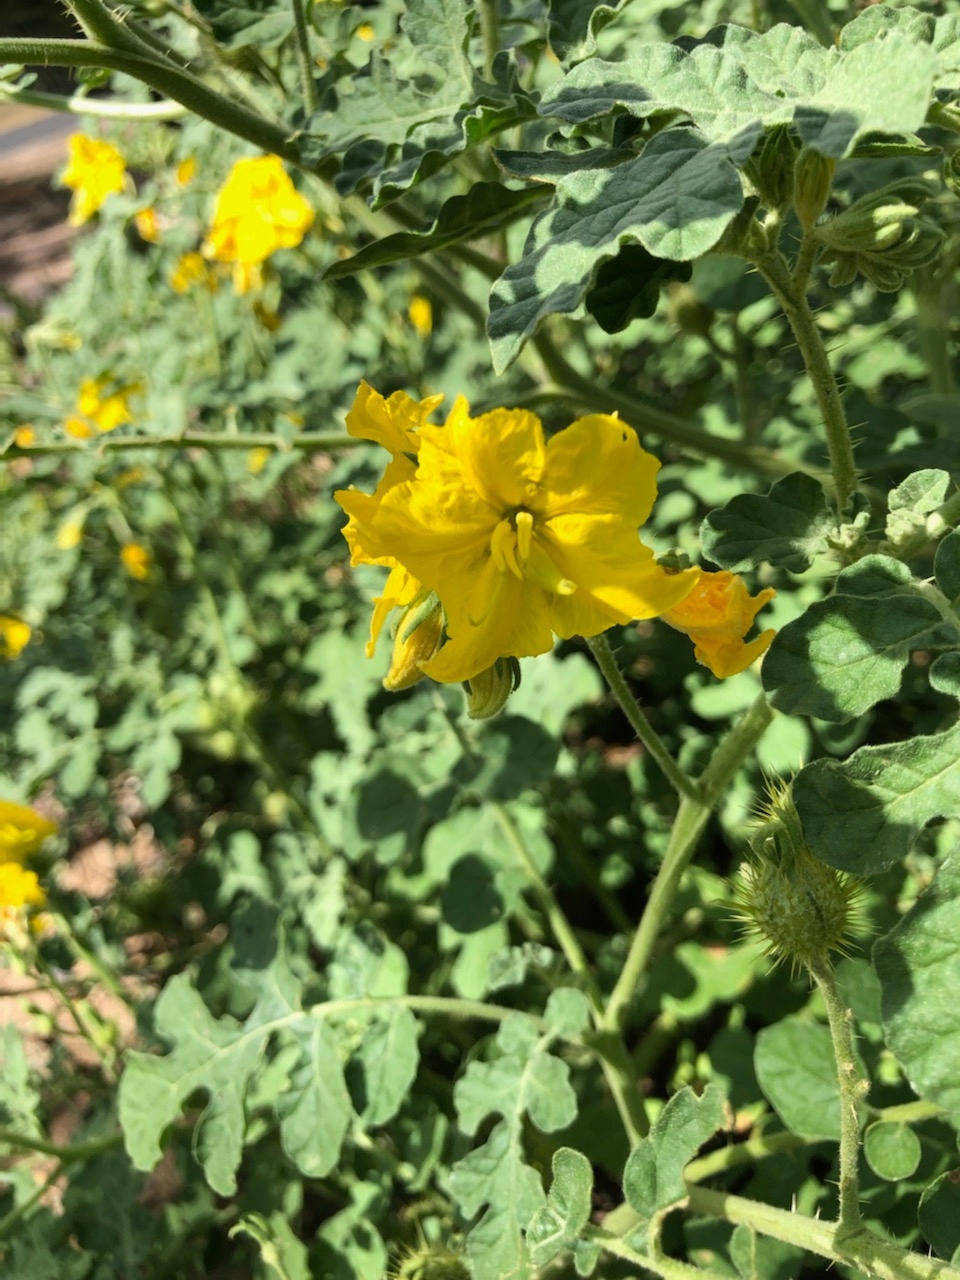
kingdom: Plantae
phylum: Tracheophyta
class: Magnoliopsida
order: Solanales
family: Solanaceae
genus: Solanum
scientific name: Solanum angustifolium
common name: Buffalobur nightshade
